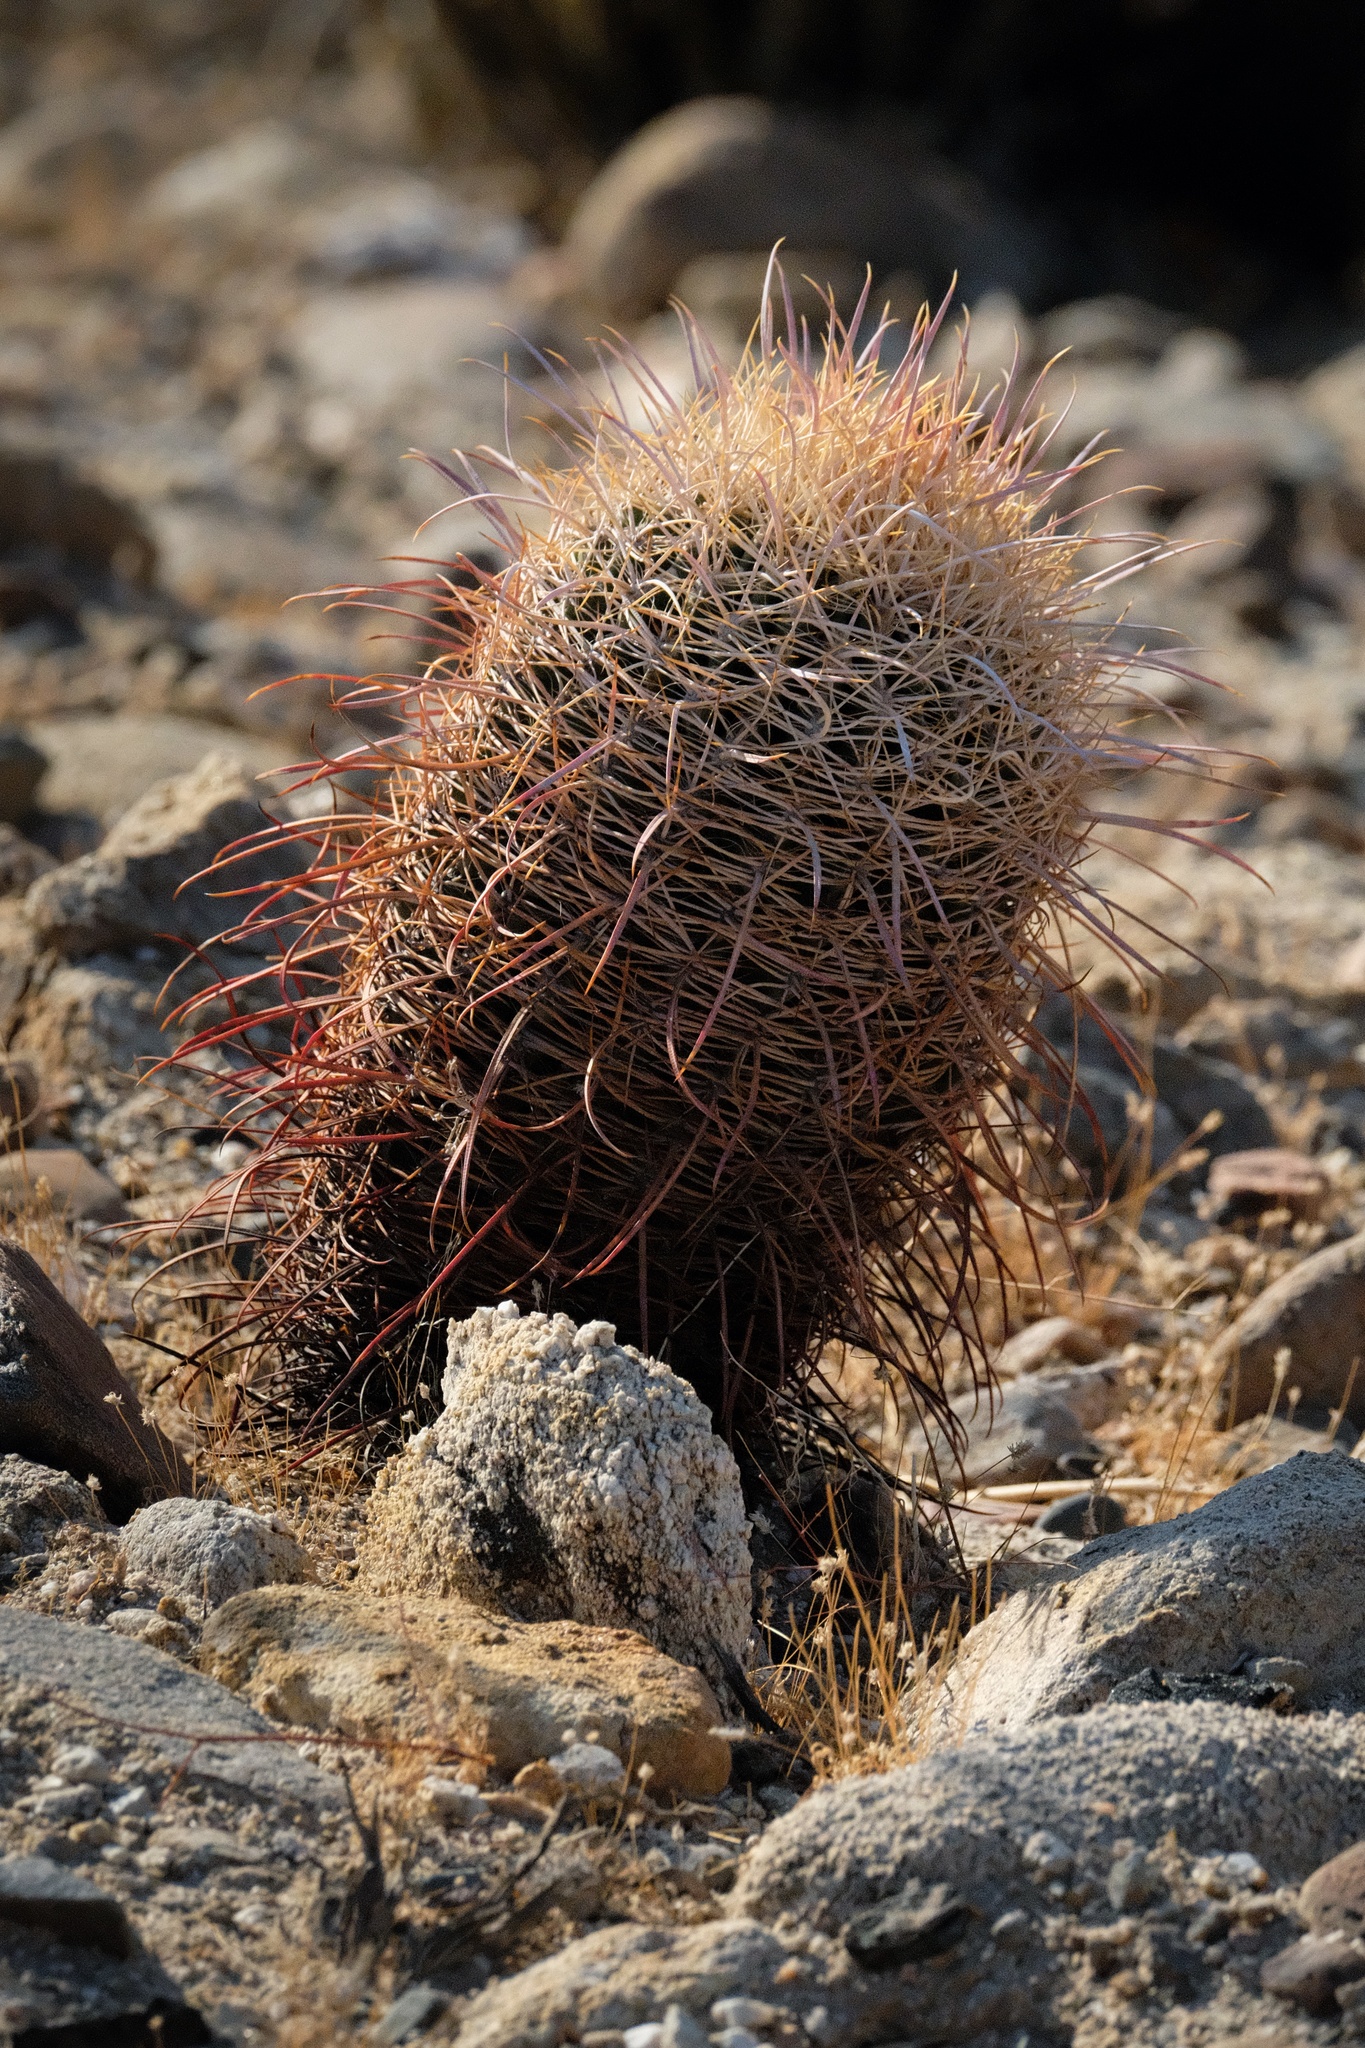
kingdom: Plantae
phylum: Tracheophyta
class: Magnoliopsida
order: Caryophyllales
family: Cactaceae
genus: Ferocactus
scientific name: Ferocactus cylindraceus
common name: California barrel cactus
